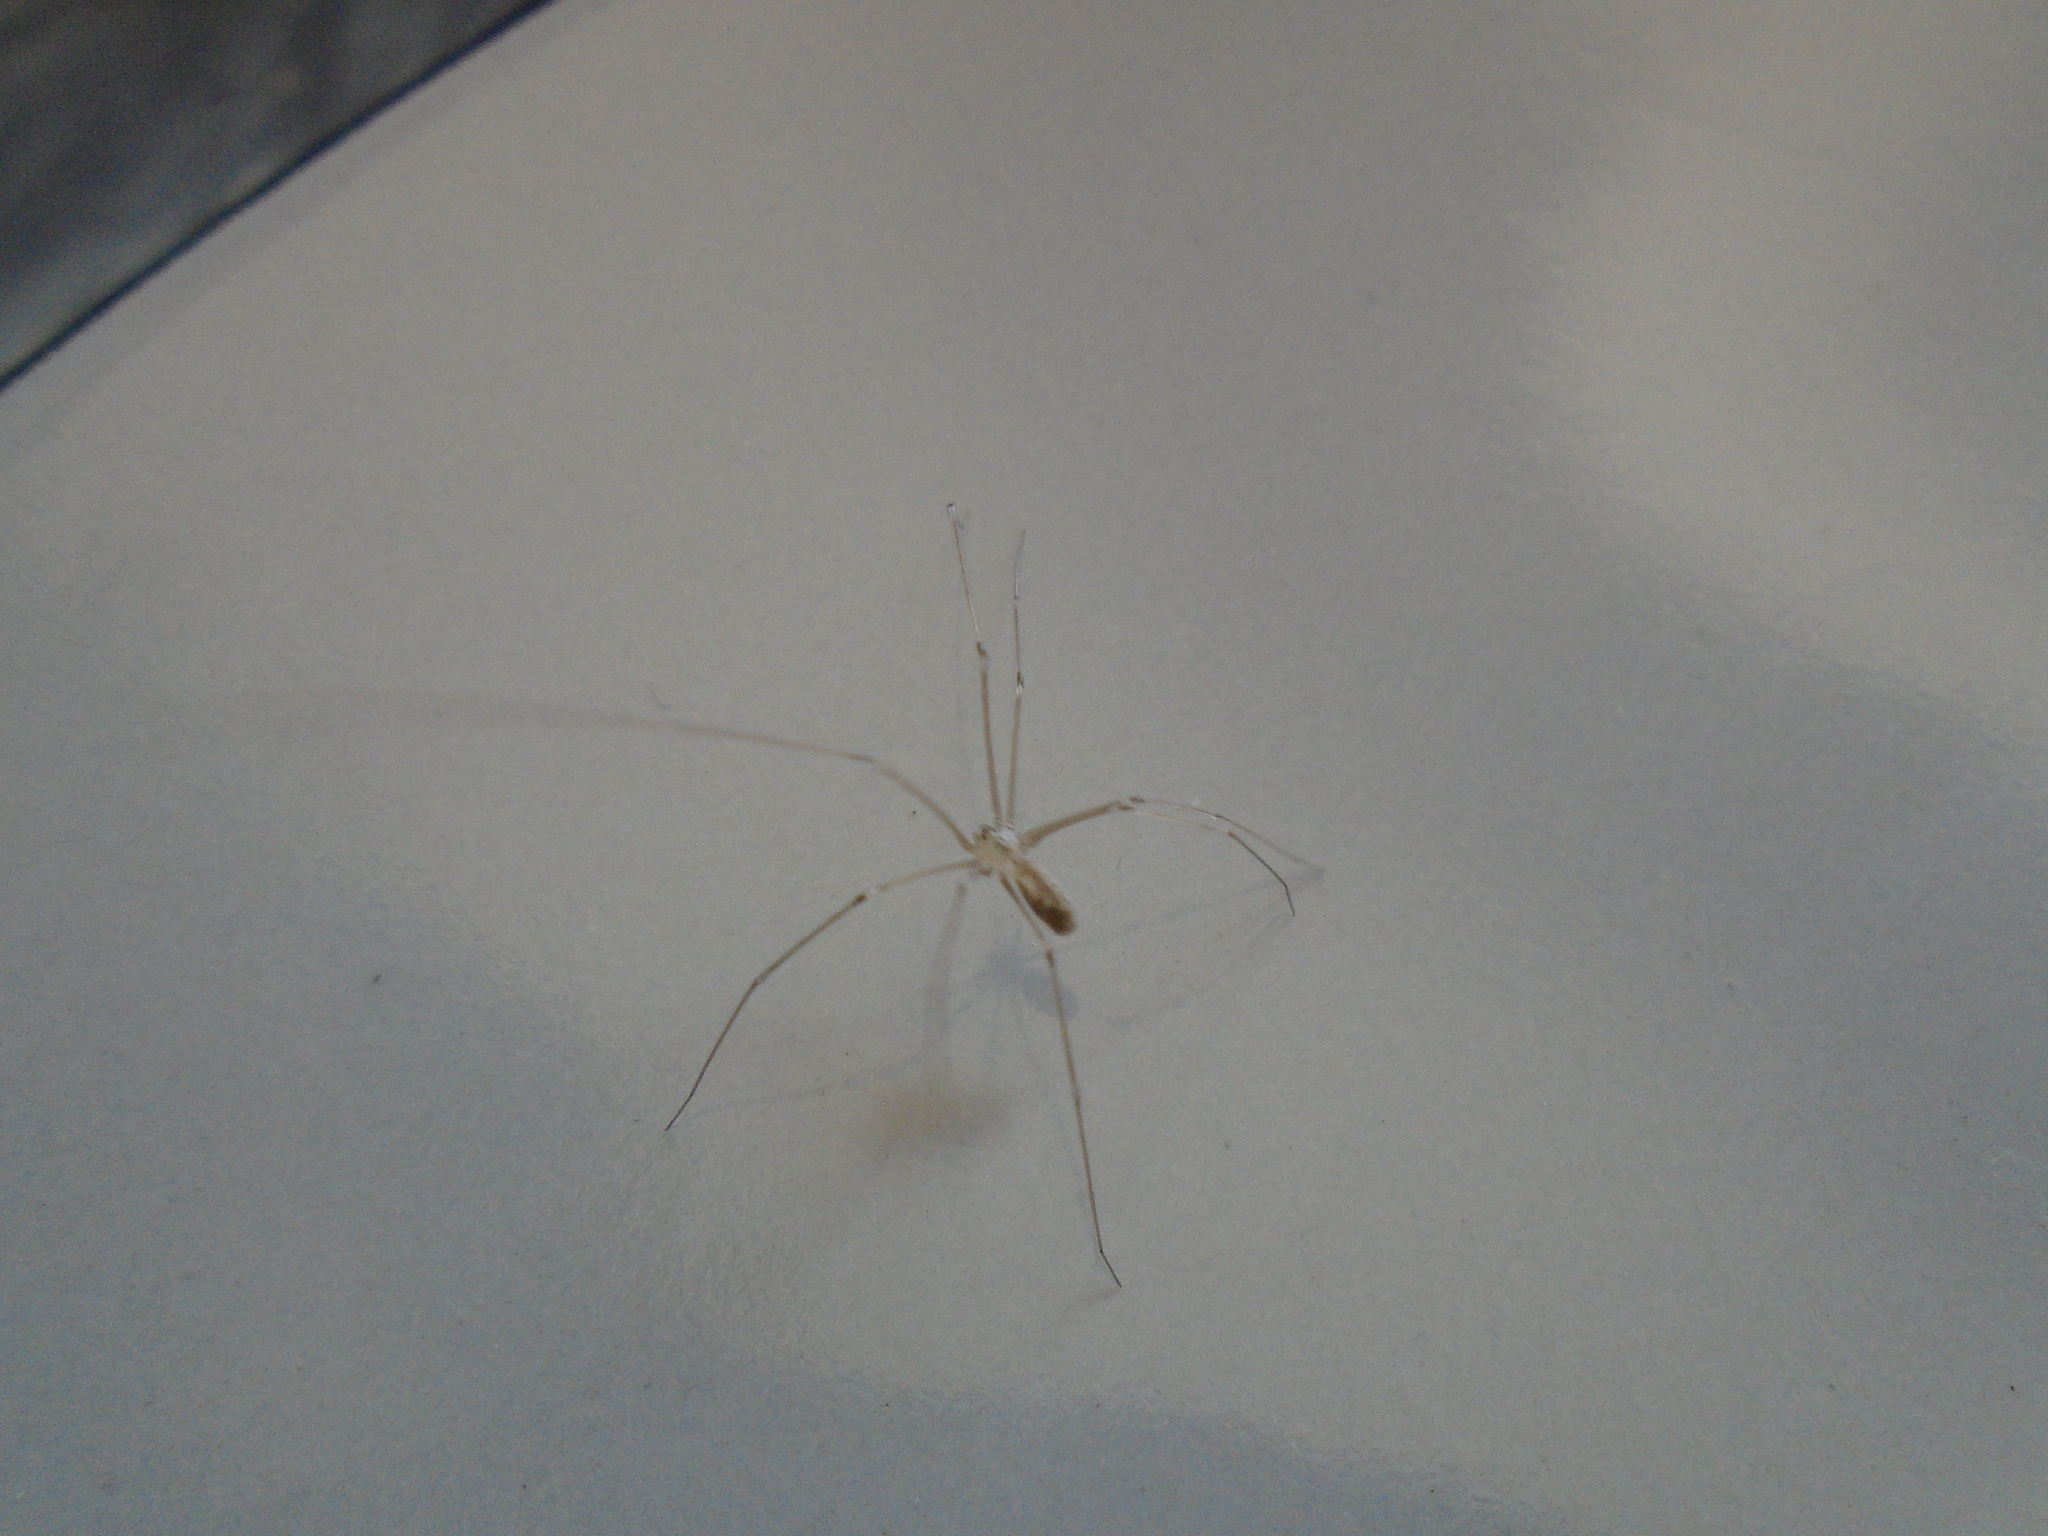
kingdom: Animalia
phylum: Arthropoda
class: Arachnida
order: Araneae
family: Pholcidae
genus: Pholcus
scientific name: Pholcus phalangioides
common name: Longbodied cellar spider
